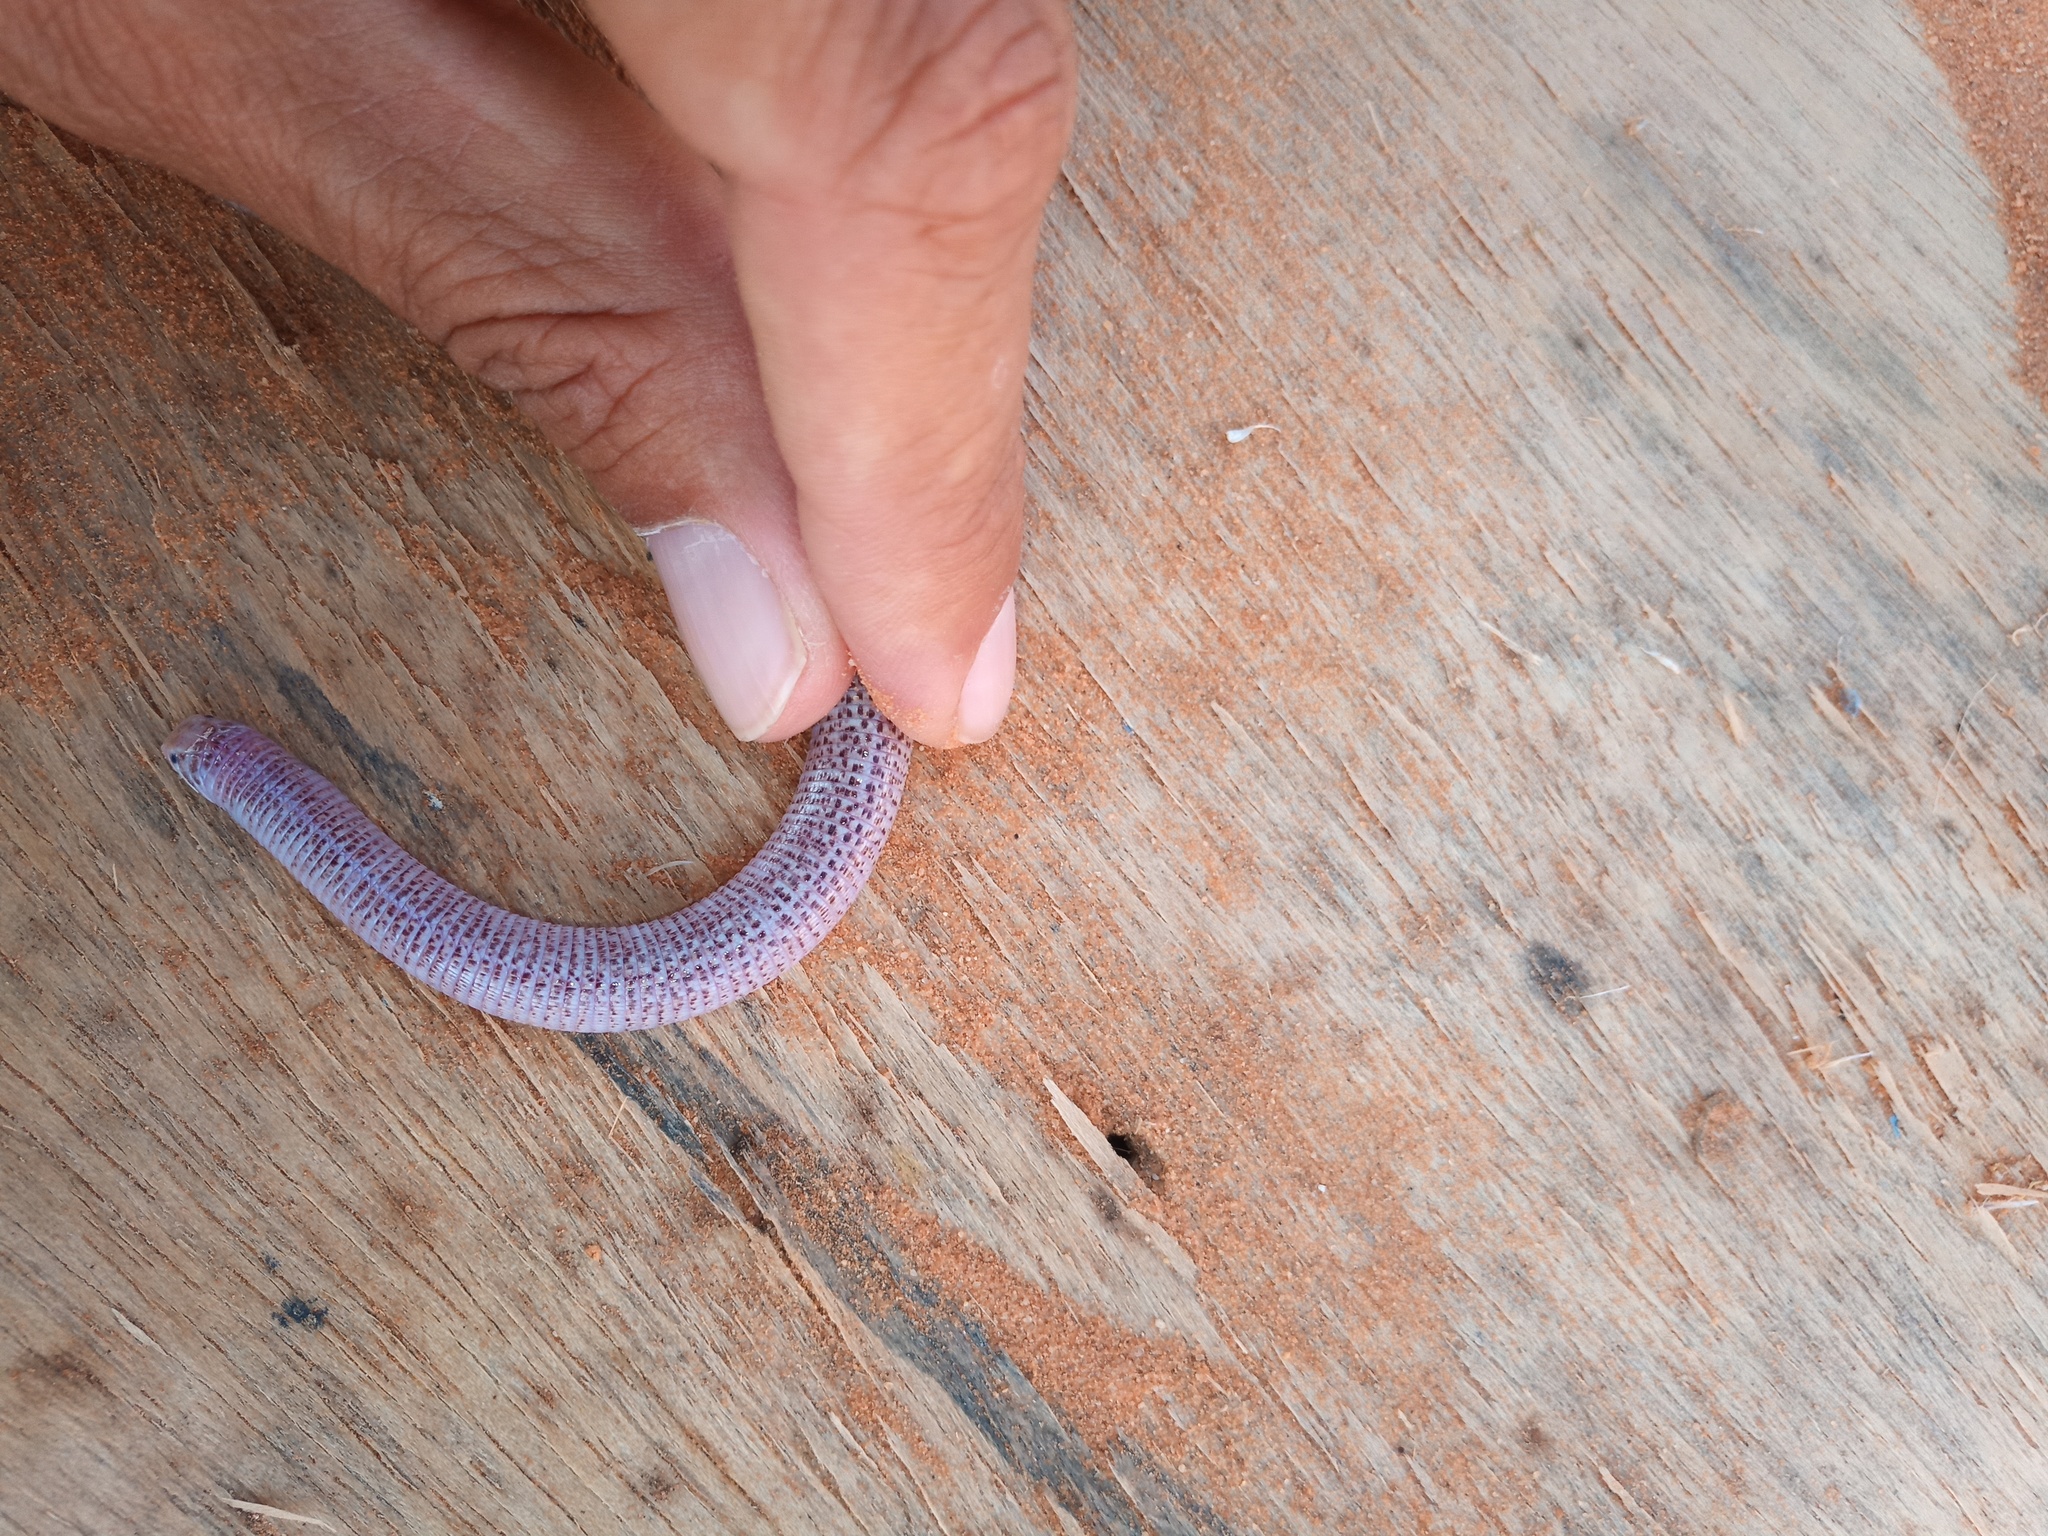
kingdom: Animalia
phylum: Chordata
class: Squamata
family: Trogonophidae
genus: Diplometopon
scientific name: Diplometopon zarudnyi
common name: Zarudnyi's worm lizard
